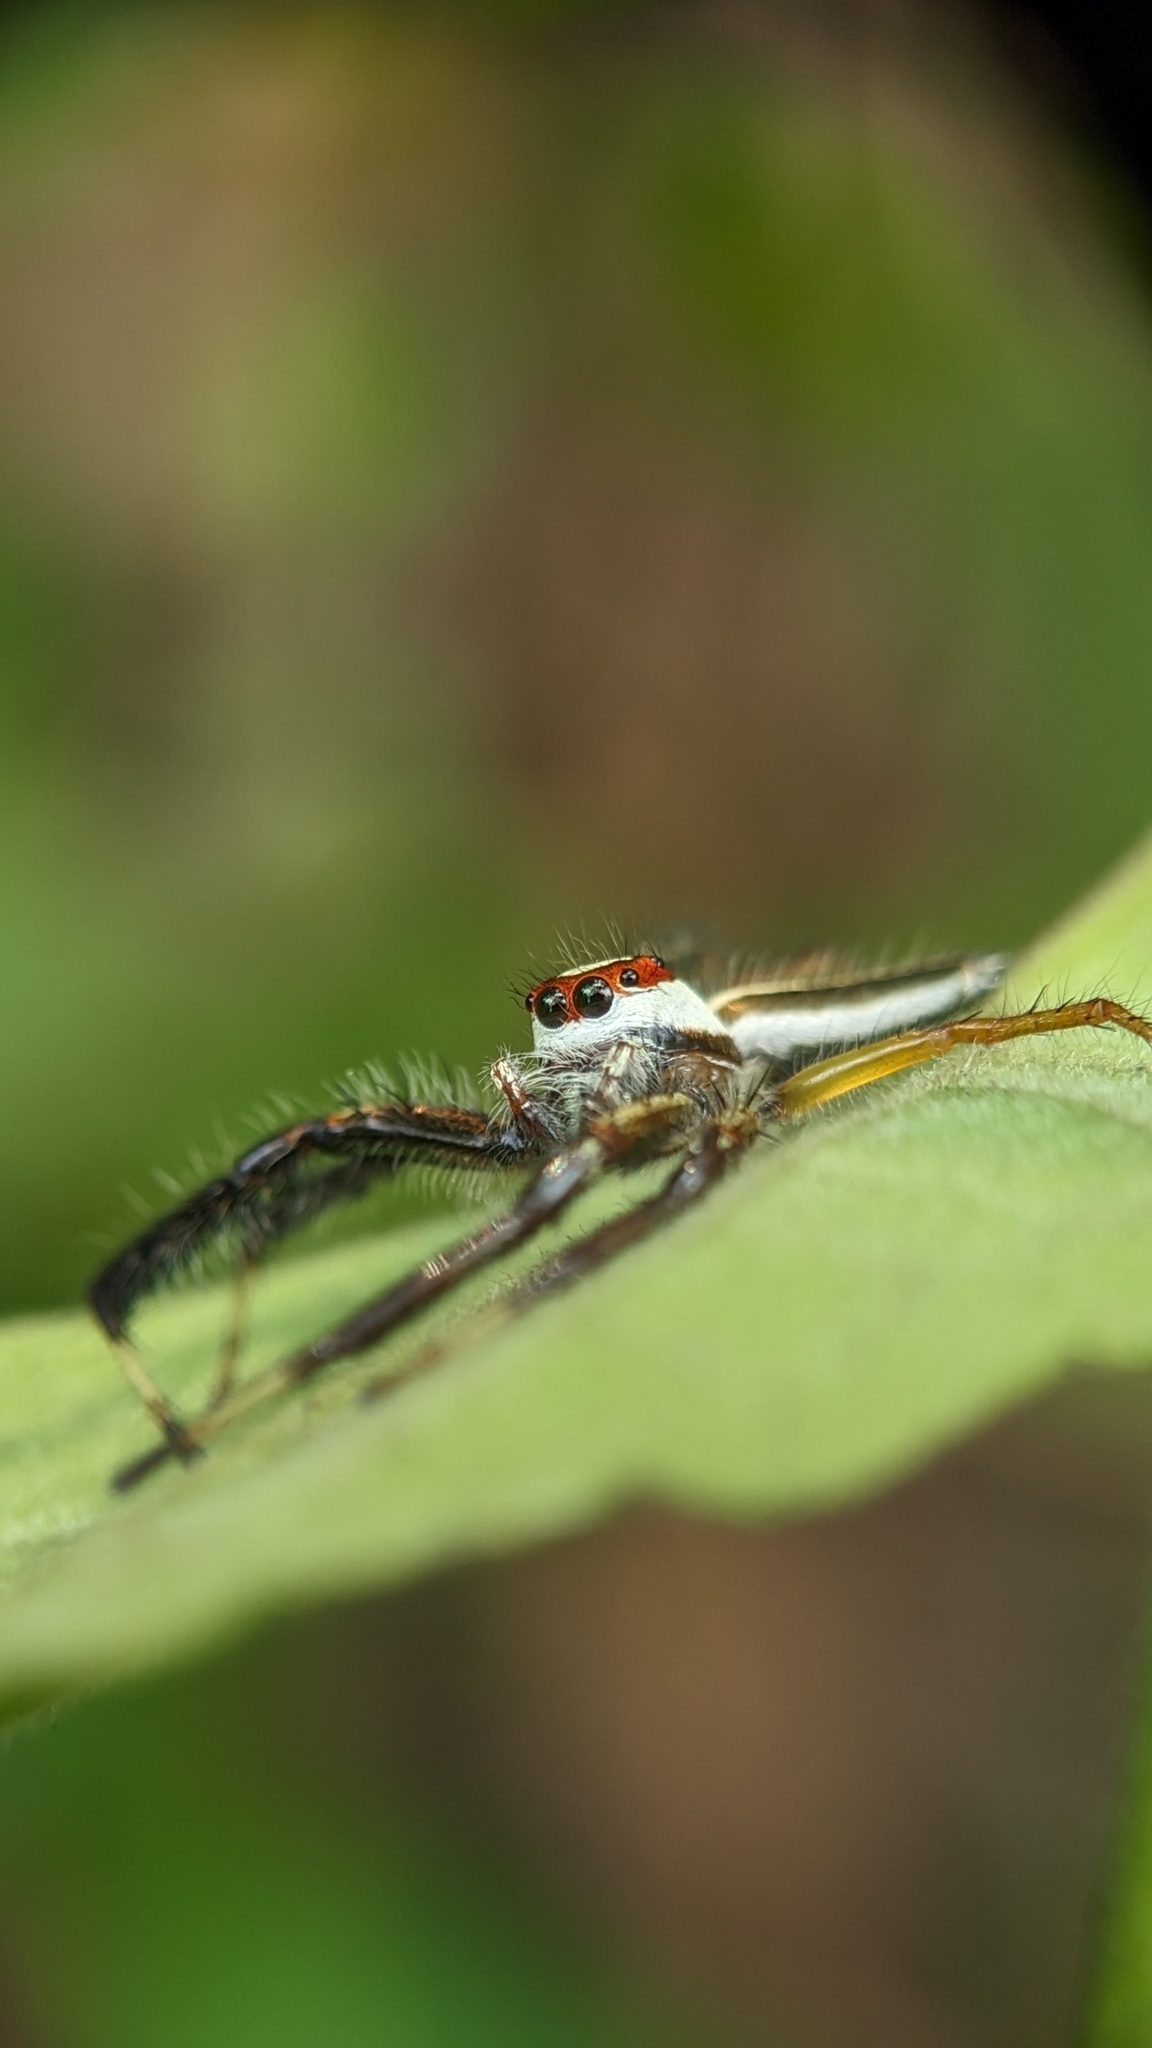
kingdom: Animalia
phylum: Arthropoda
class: Arachnida
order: Araneae
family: Salticidae
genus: Telamonia
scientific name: Telamonia dimidiata
